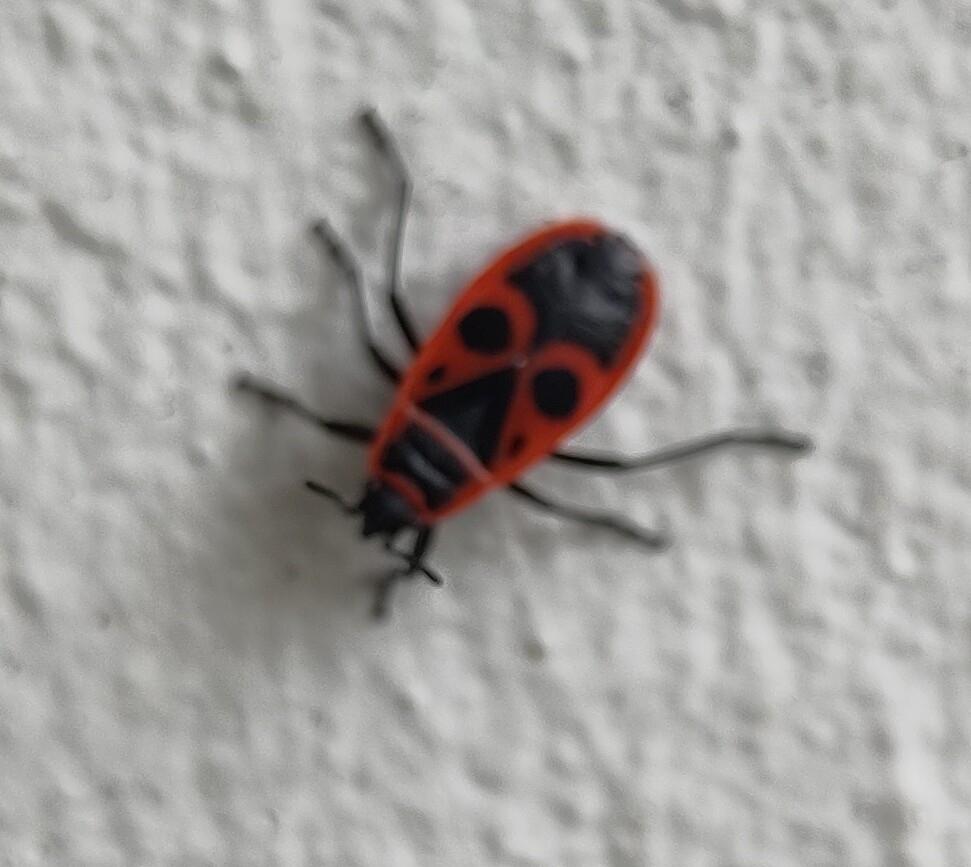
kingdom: Animalia
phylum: Arthropoda
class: Insecta
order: Hemiptera
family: Pyrrhocoridae
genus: Pyrrhocoris
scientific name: Pyrrhocoris apterus
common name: Firebug
